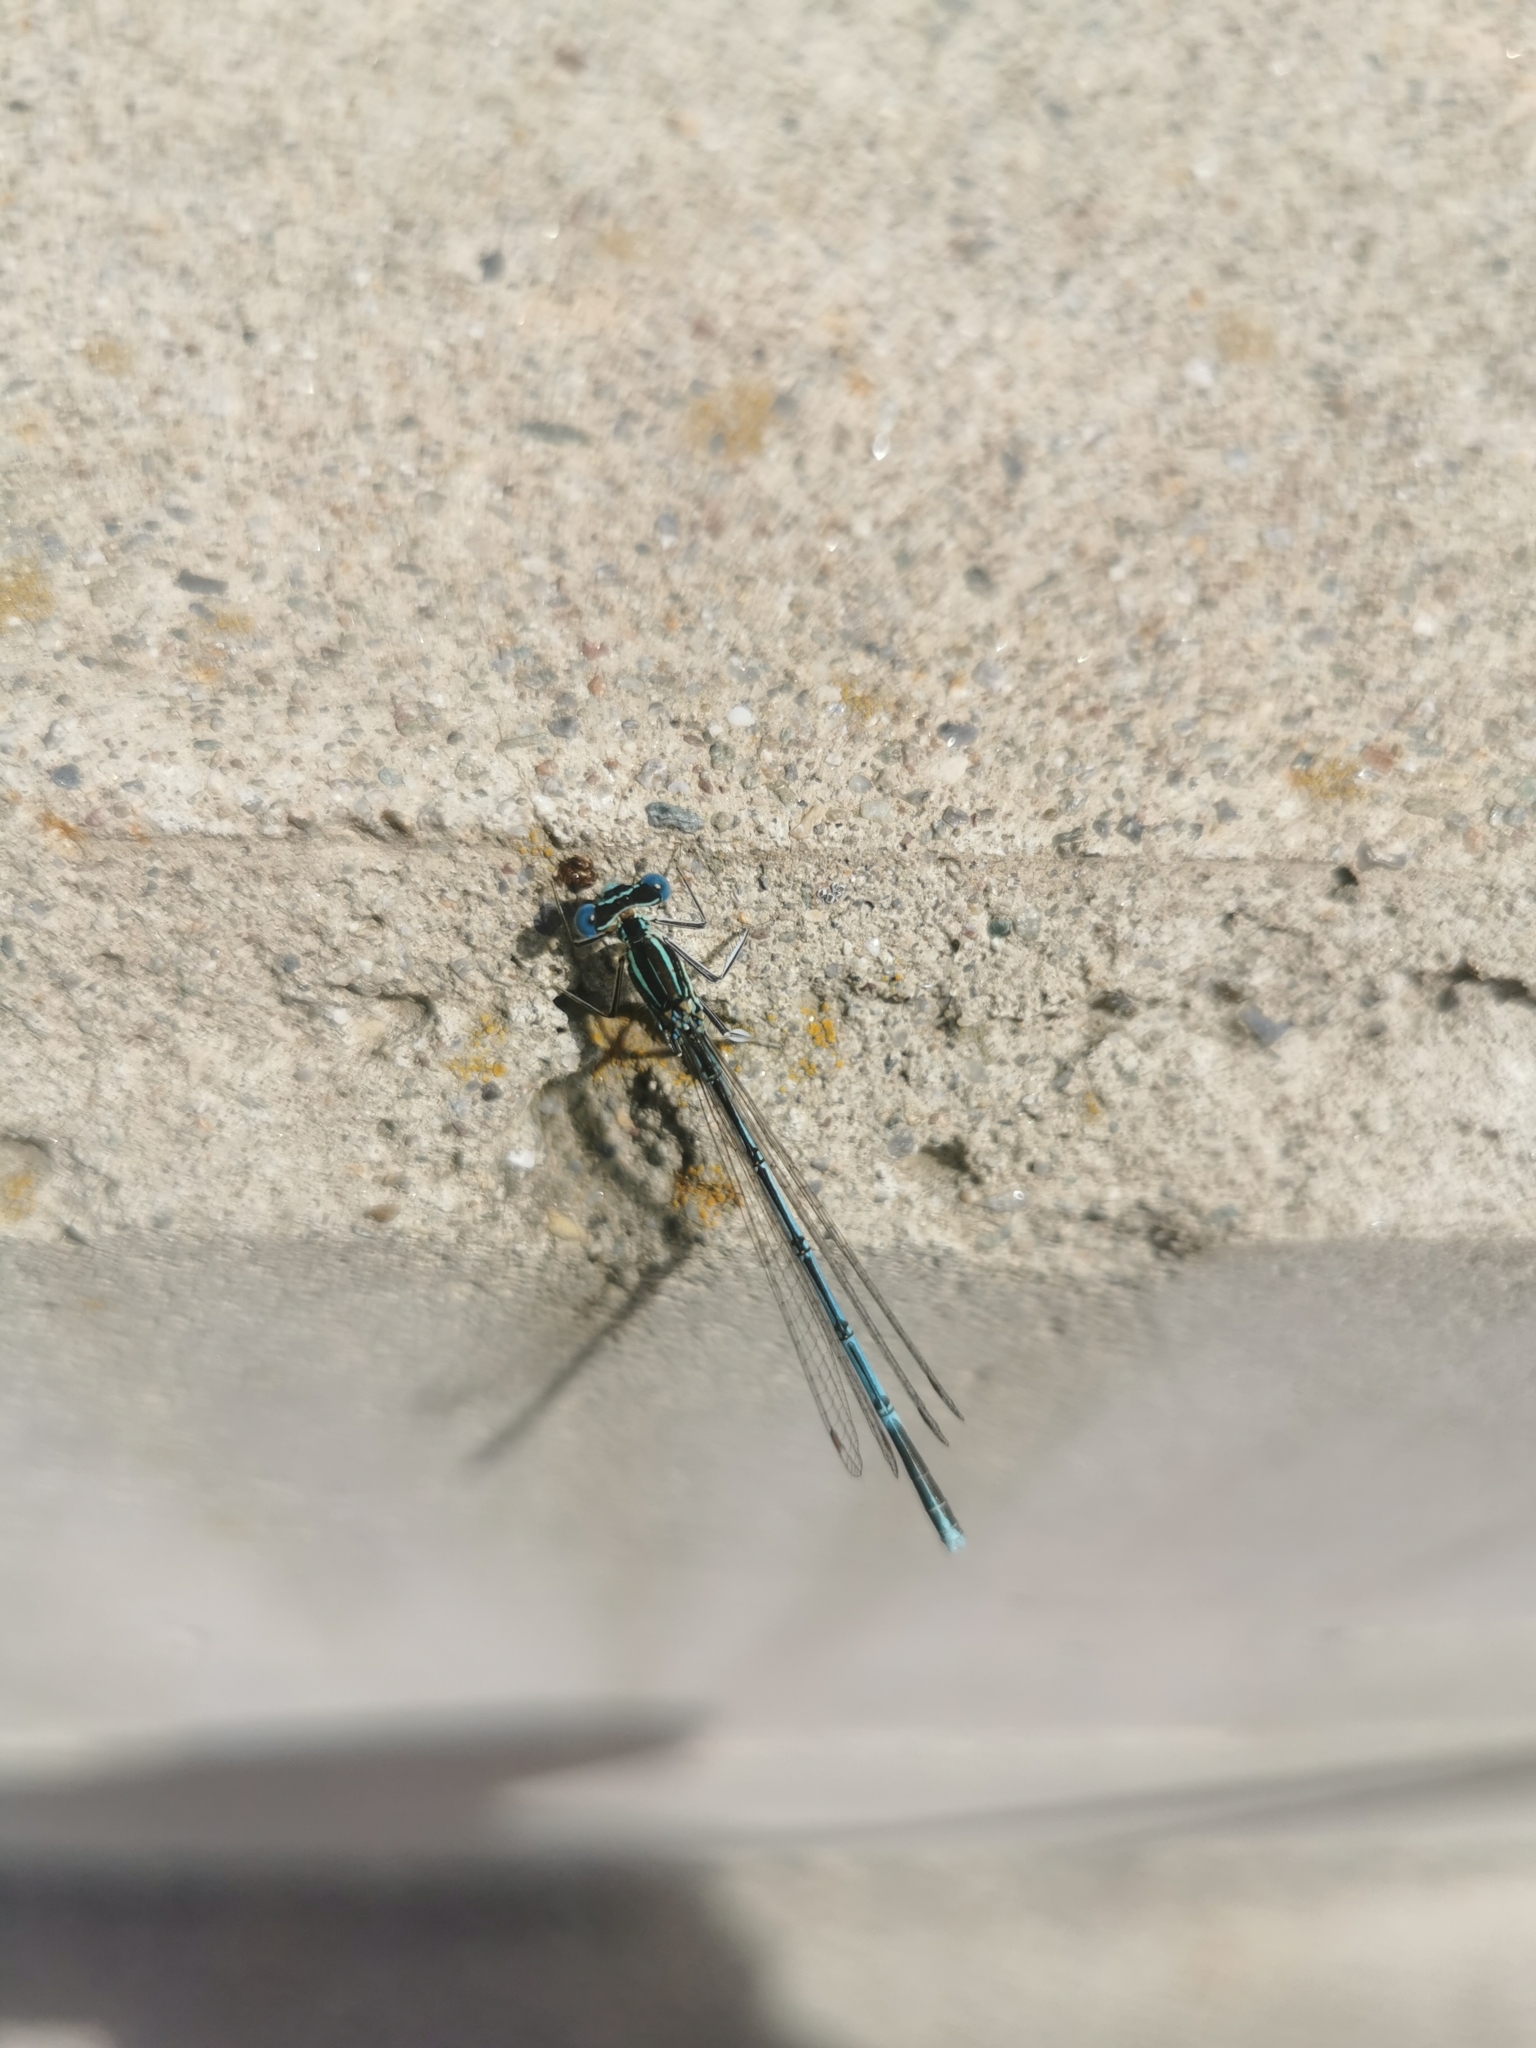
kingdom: Animalia
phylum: Arthropoda
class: Insecta
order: Odonata
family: Platycnemididae
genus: Platycnemis
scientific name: Platycnemis pennipes
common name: White-legged damselfly
